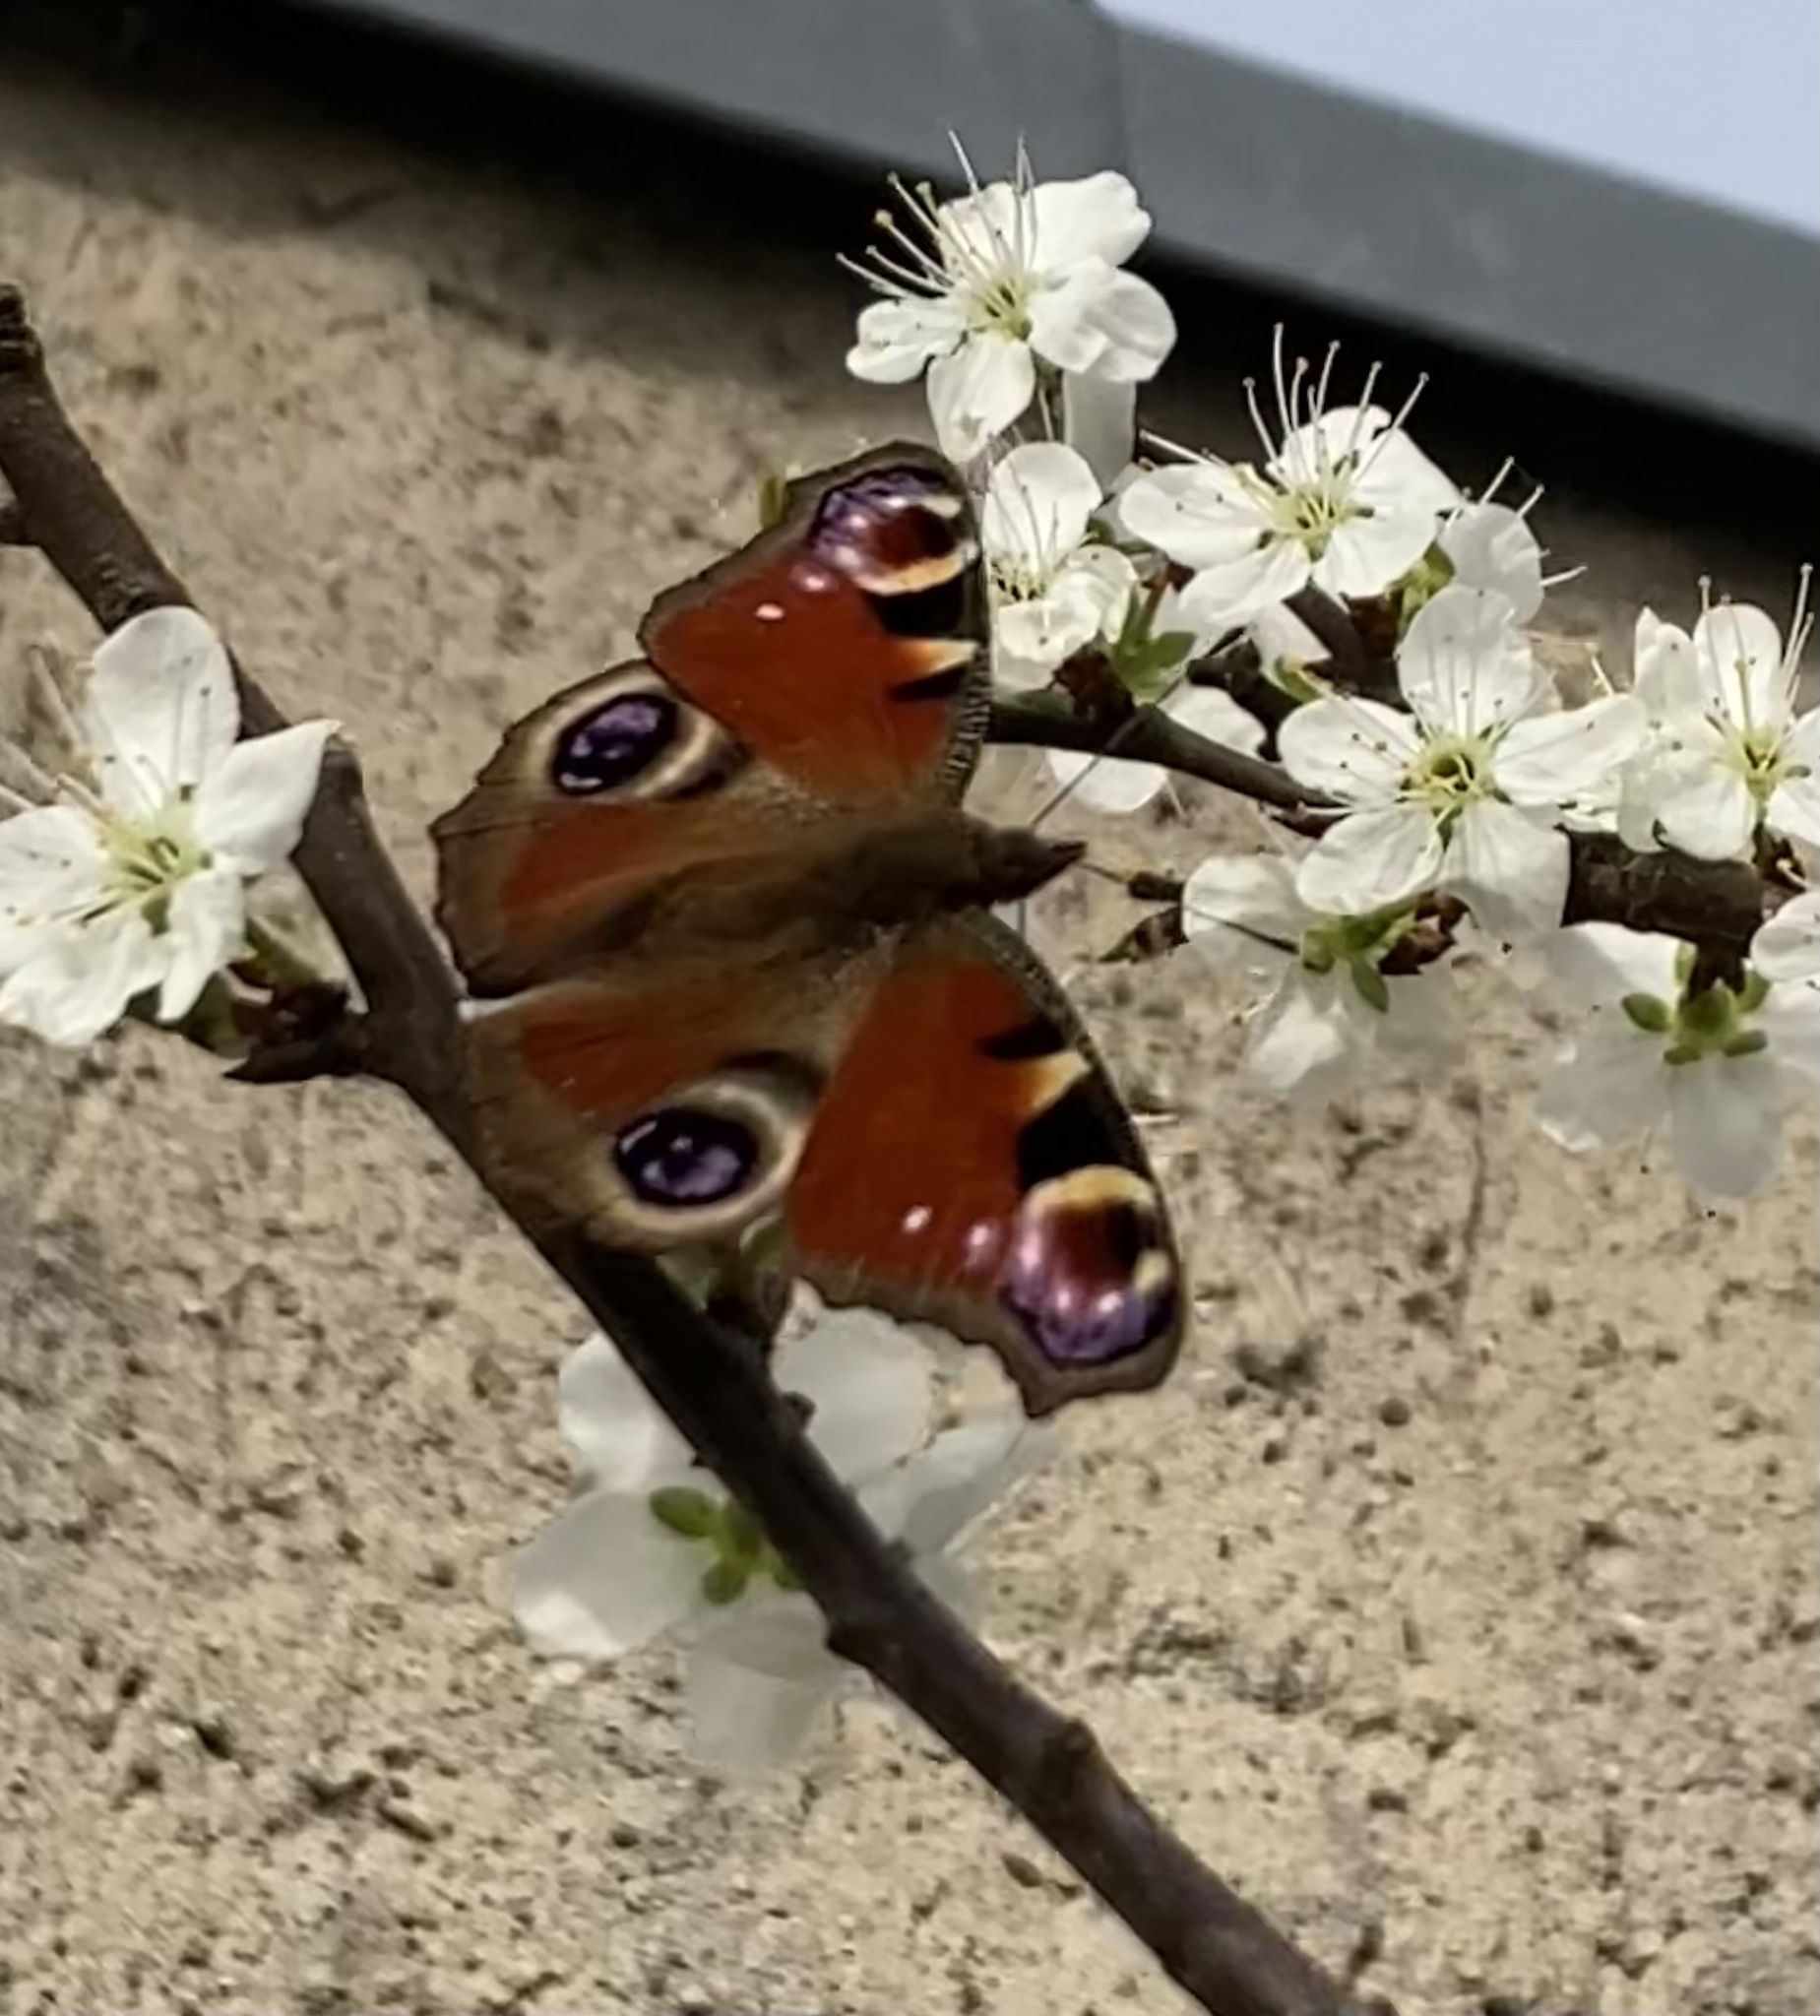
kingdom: Animalia
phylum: Arthropoda
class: Insecta
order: Lepidoptera
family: Nymphalidae
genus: Aglais
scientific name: Aglais io
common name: Peacock
